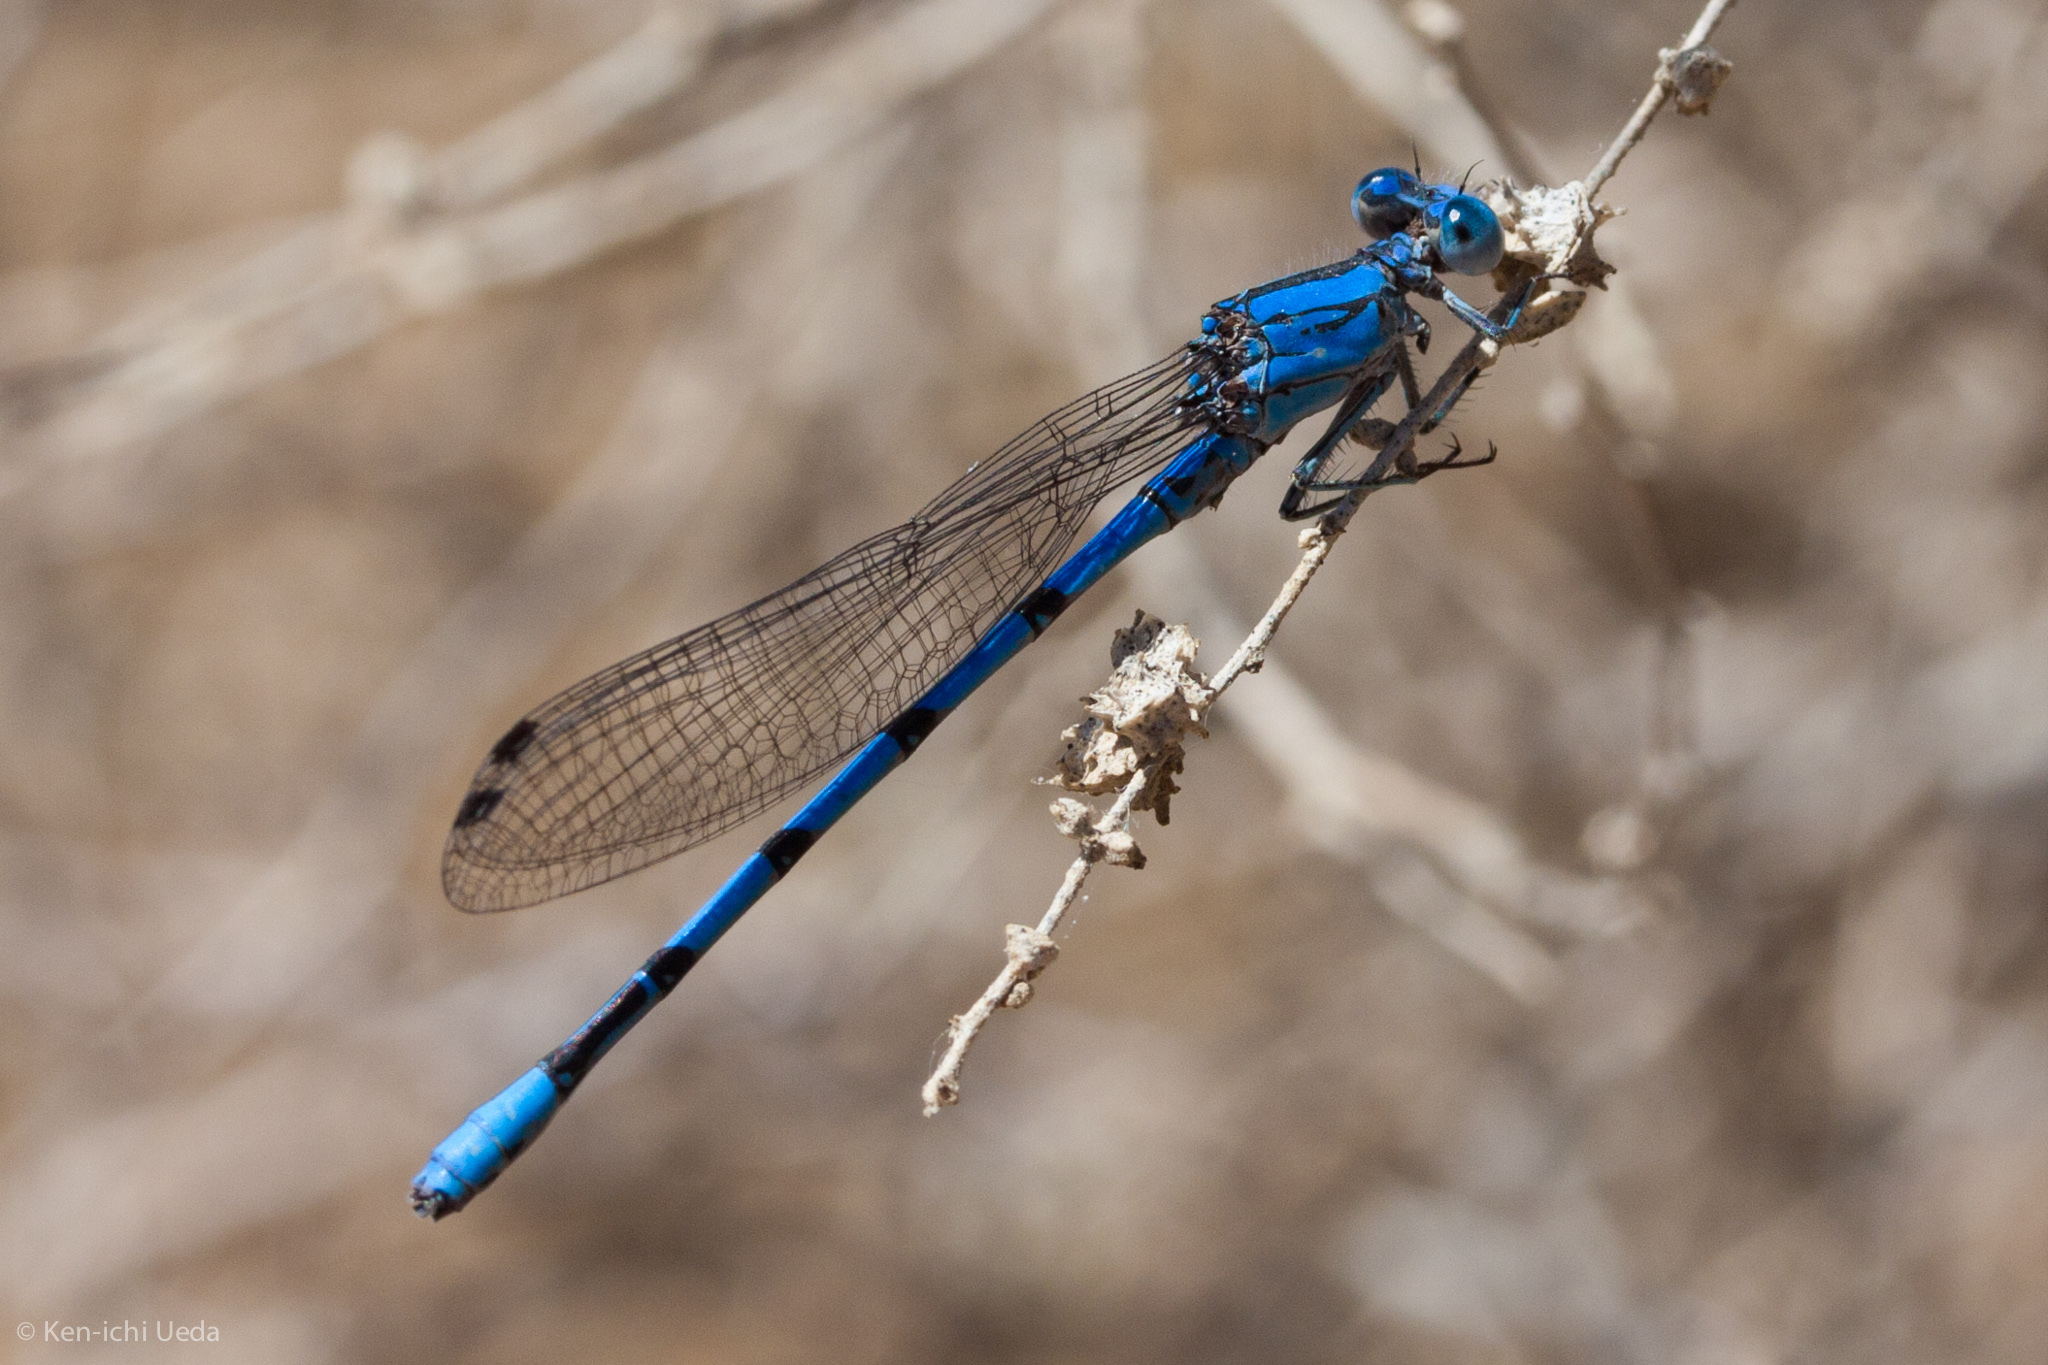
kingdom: Animalia
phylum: Arthropoda
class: Insecta
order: Odonata
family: Coenagrionidae
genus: Argia
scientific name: Argia agrioides
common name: California dancer
